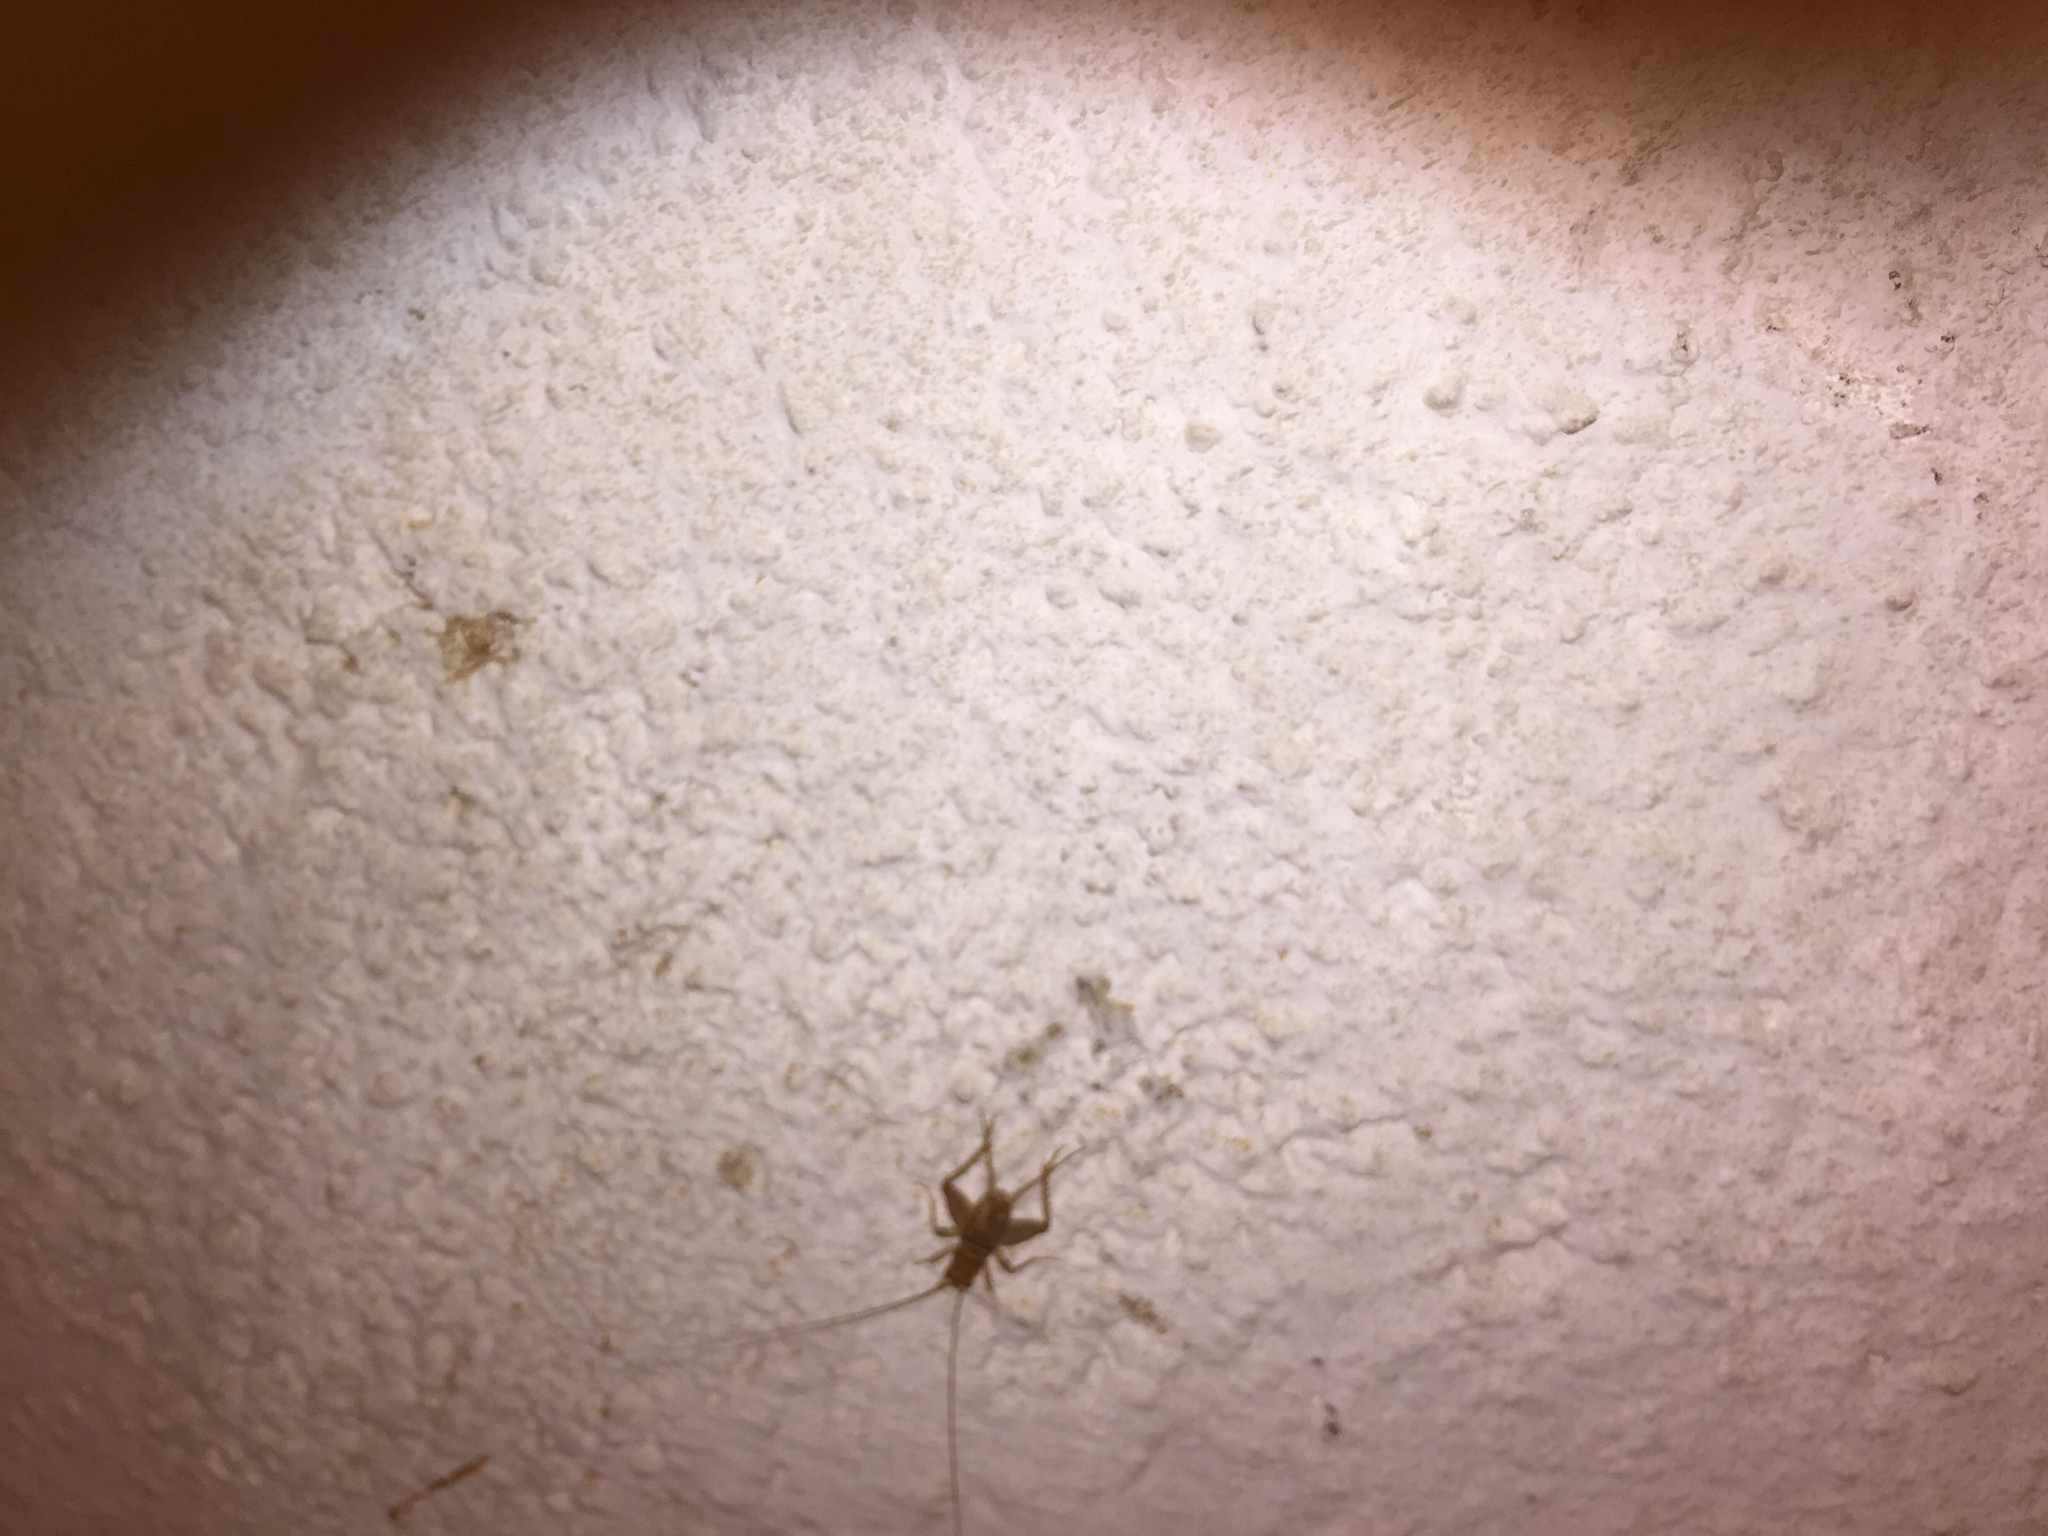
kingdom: Animalia
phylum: Arthropoda
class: Insecta
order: Orthoptera
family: Gryllidae
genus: Gryllodes
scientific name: Gryllodes sigillatus
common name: Tropical house cricket
